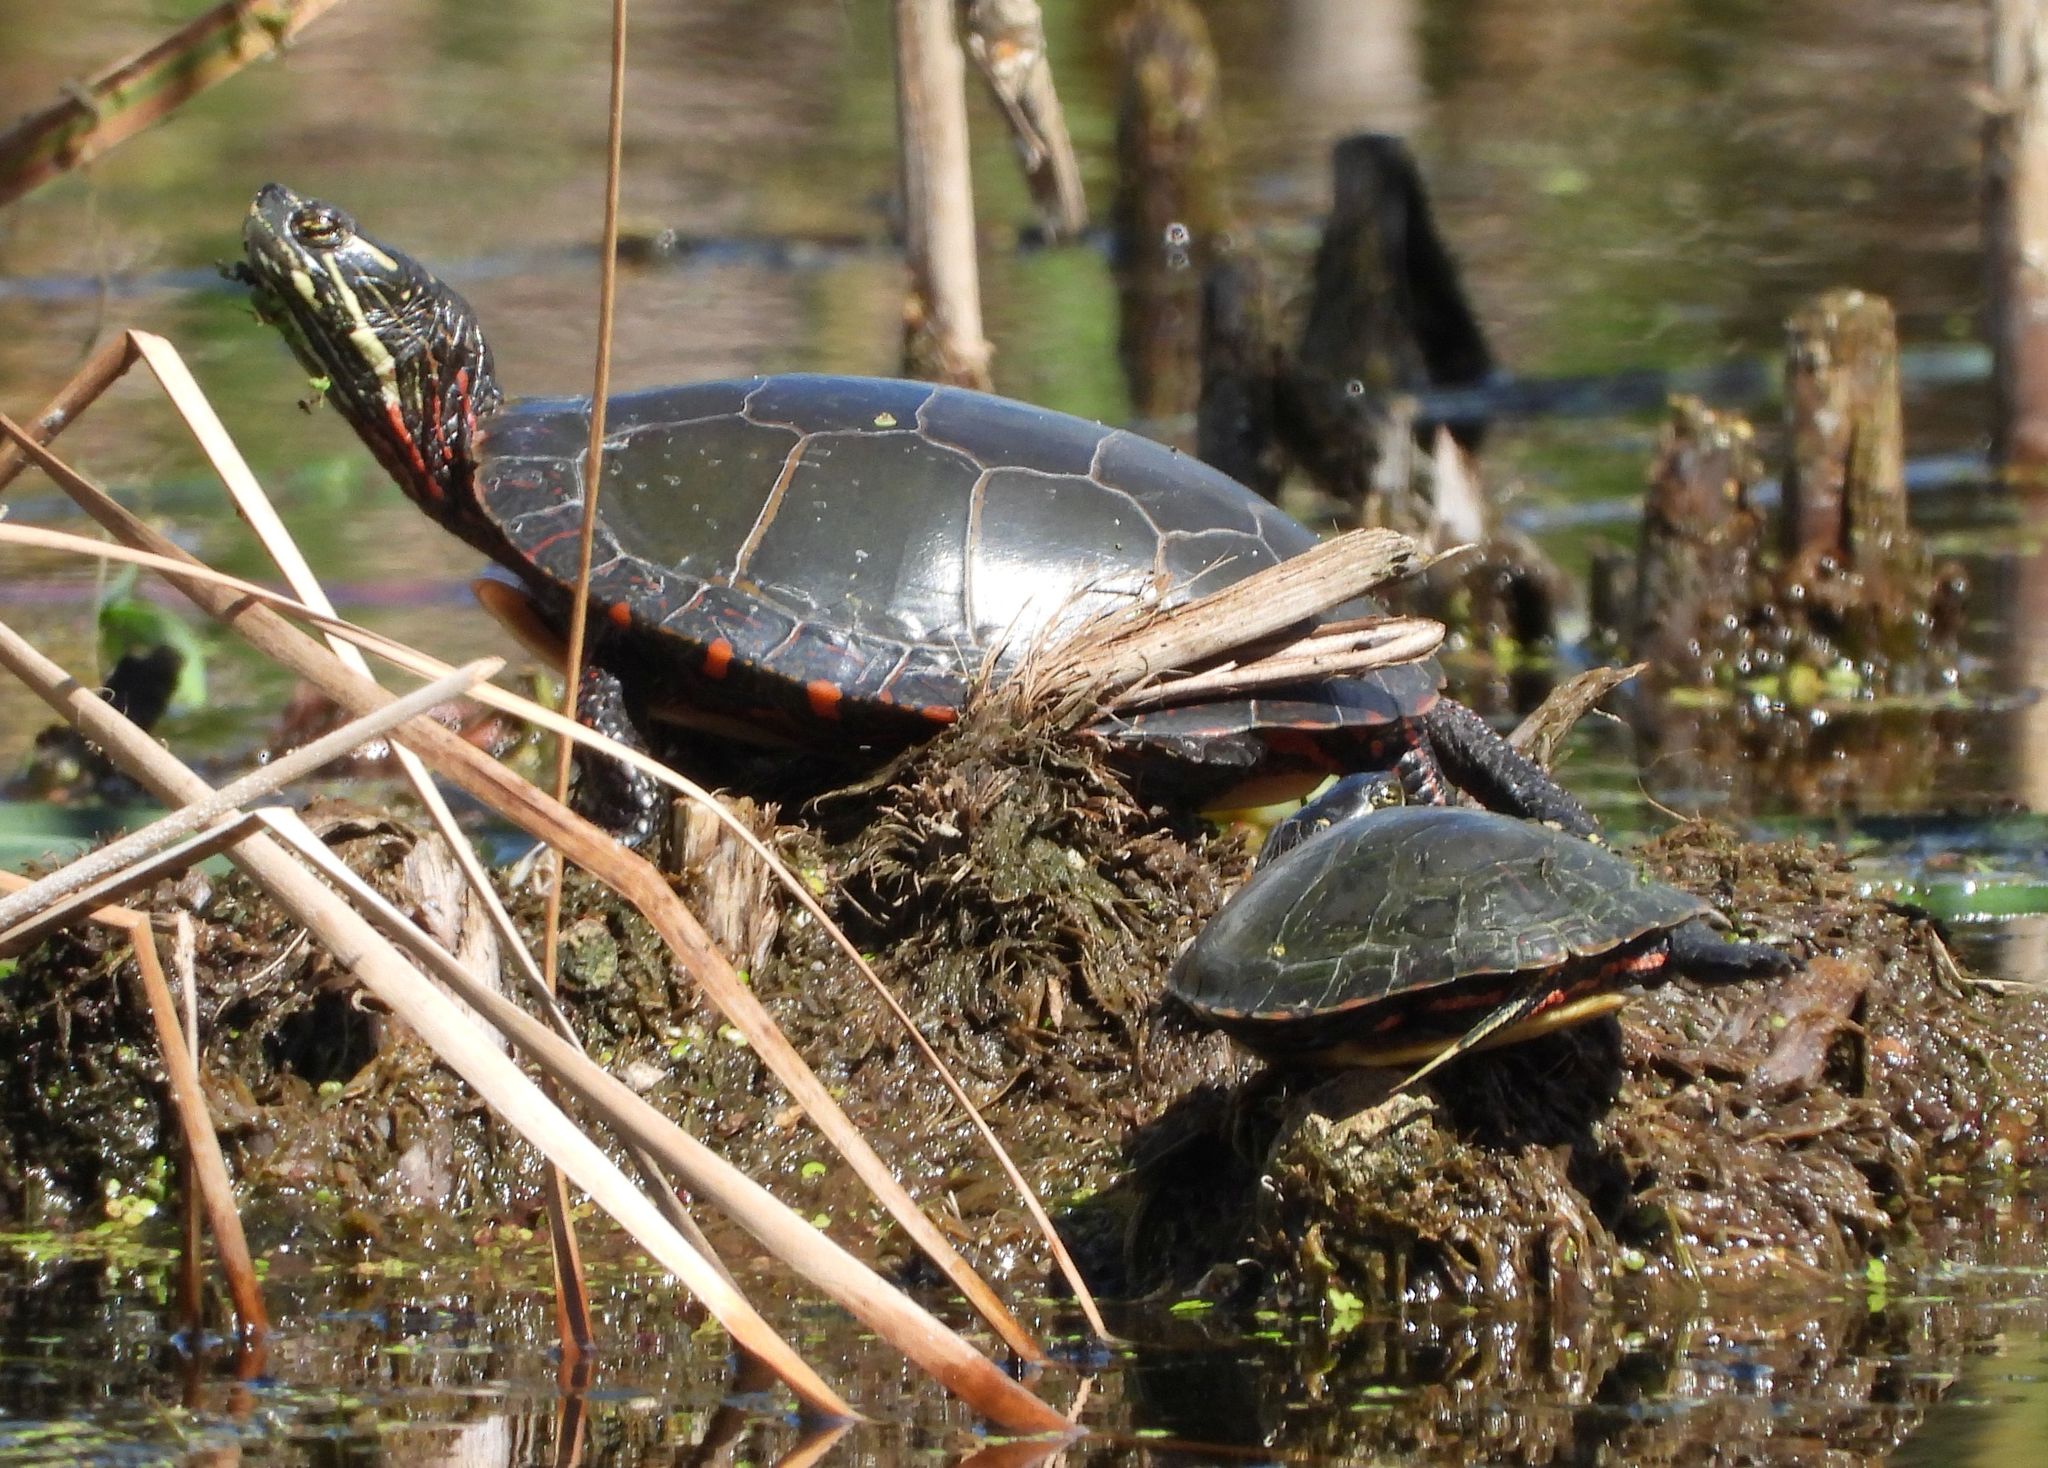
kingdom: Animalia
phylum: Chordata
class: Testudines
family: Emydidae
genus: Chrysemys
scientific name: Chrysemys picta
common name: Painted turtle
